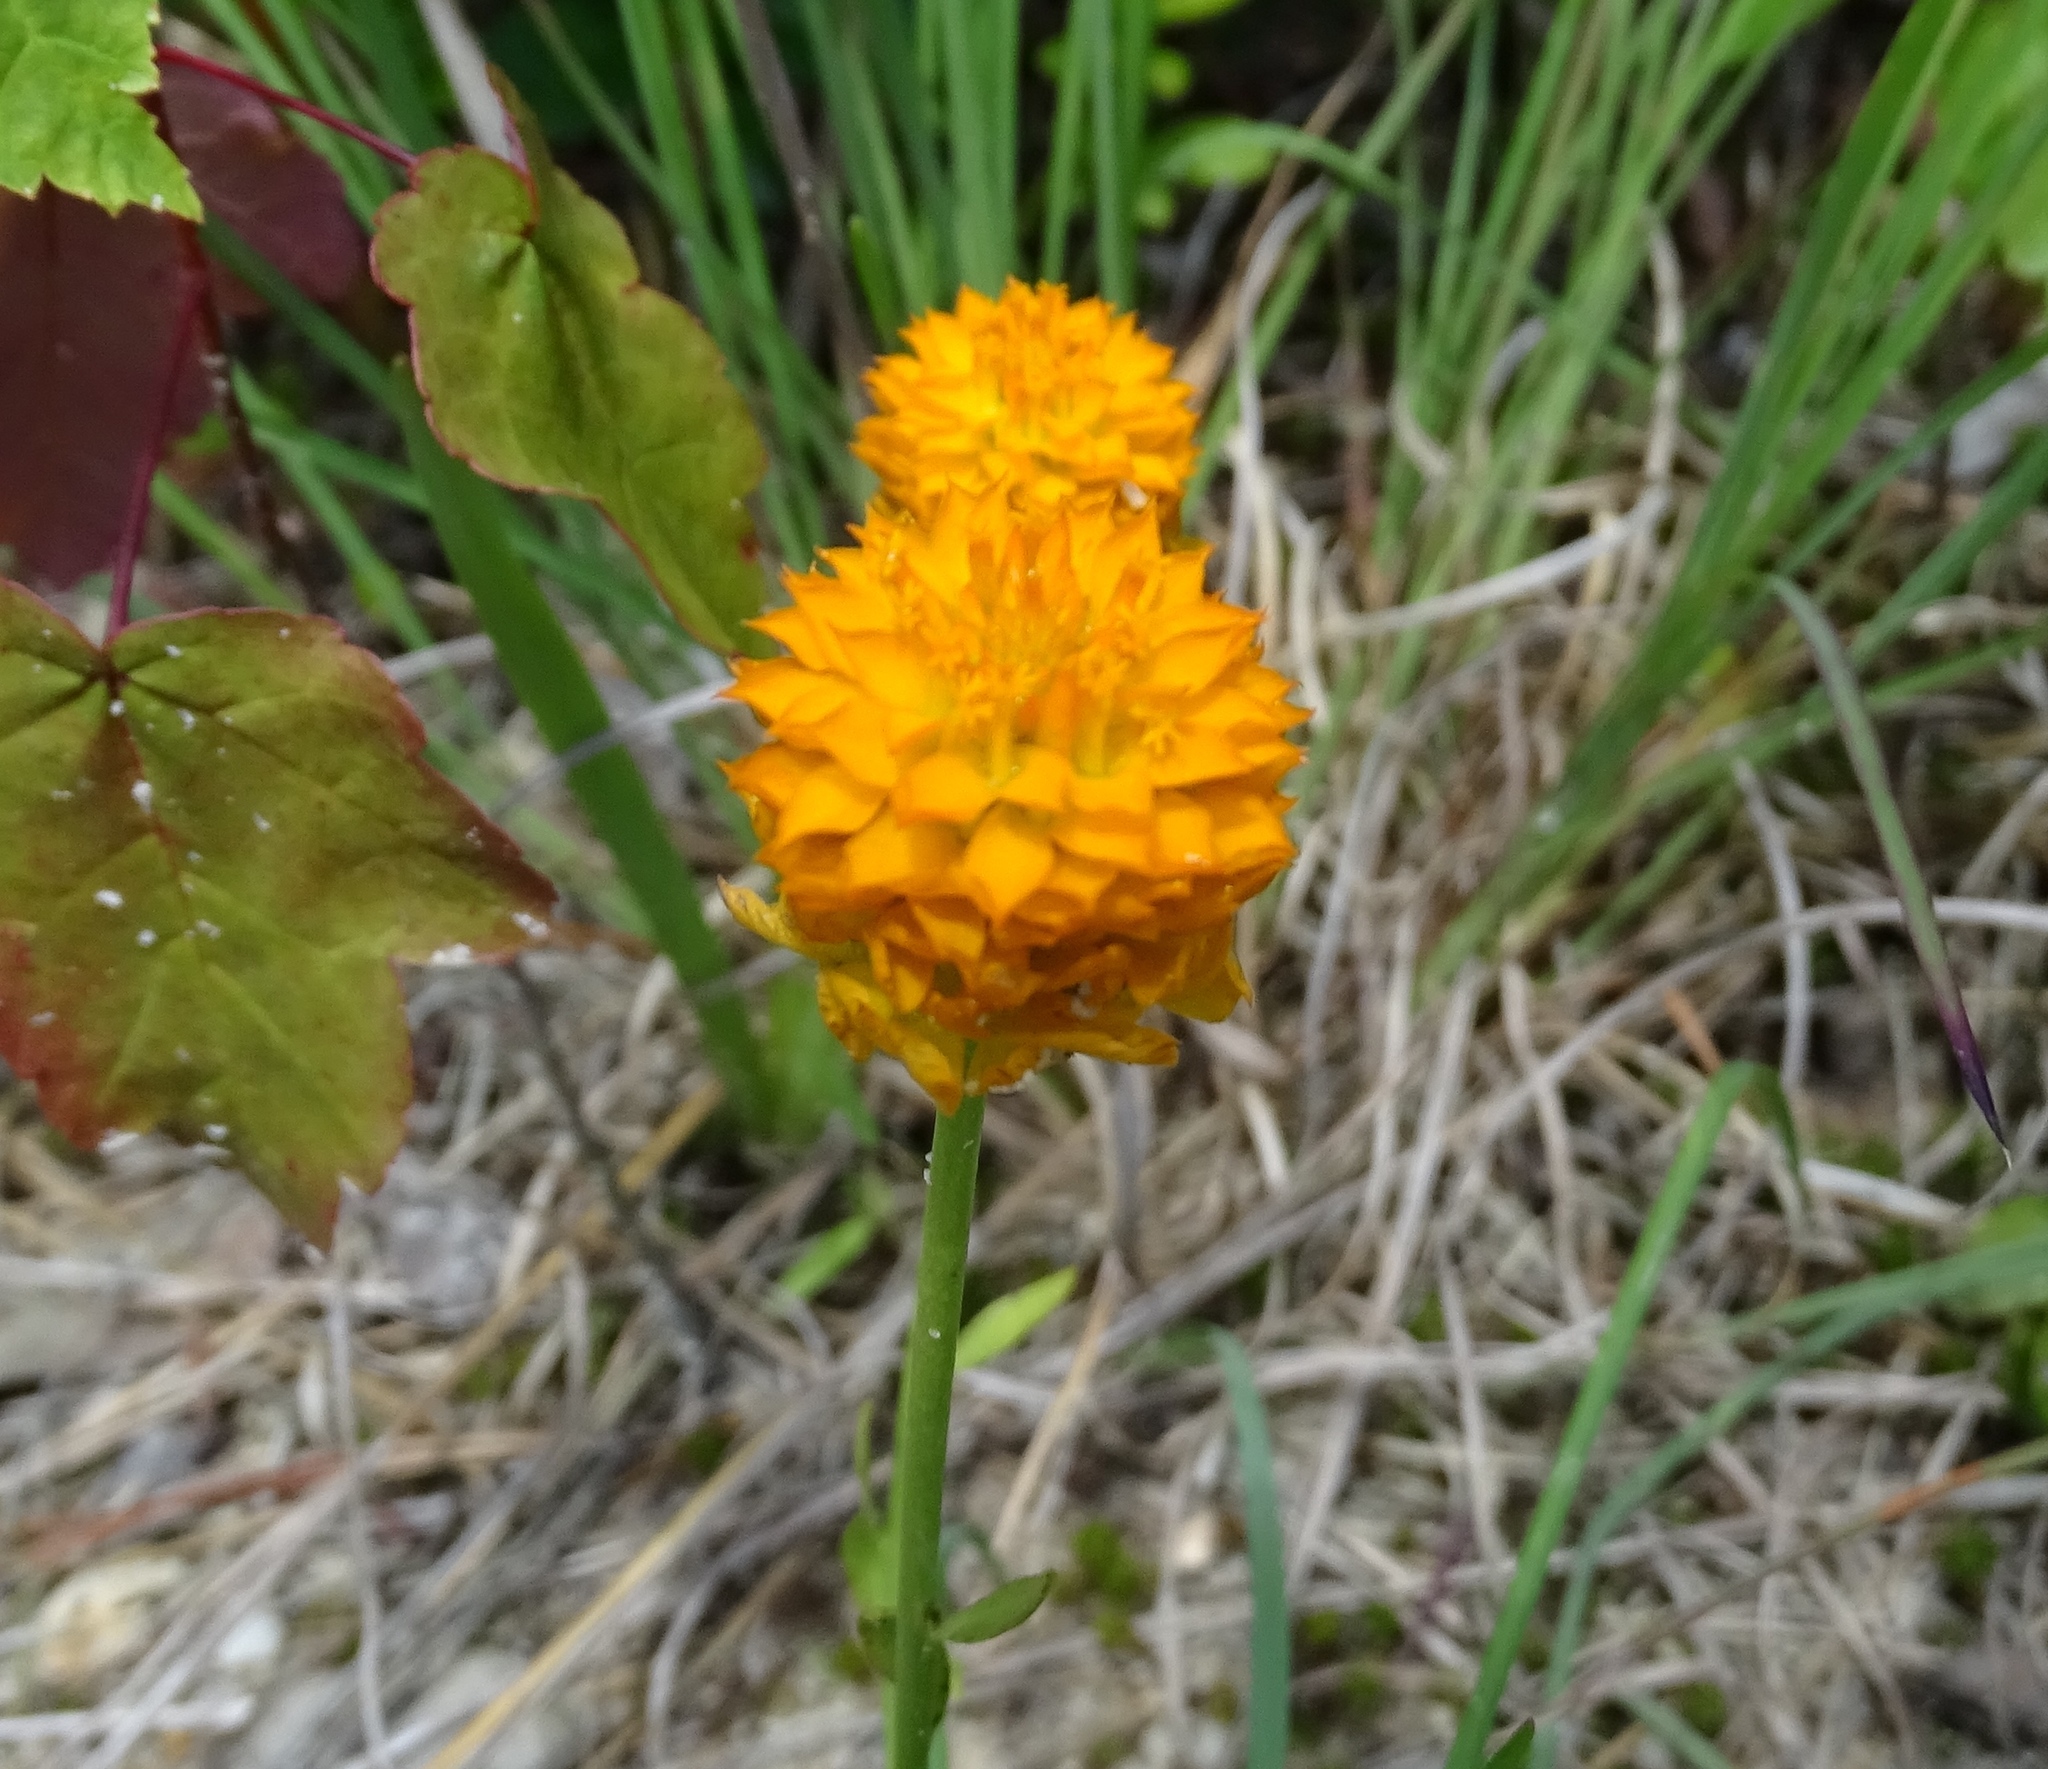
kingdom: Plantae
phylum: Tracheophyta
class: Magnoliopsida
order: Fabales
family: Polygalaceae
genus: Polygala
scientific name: Polygala lutea
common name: Orange milkwort
